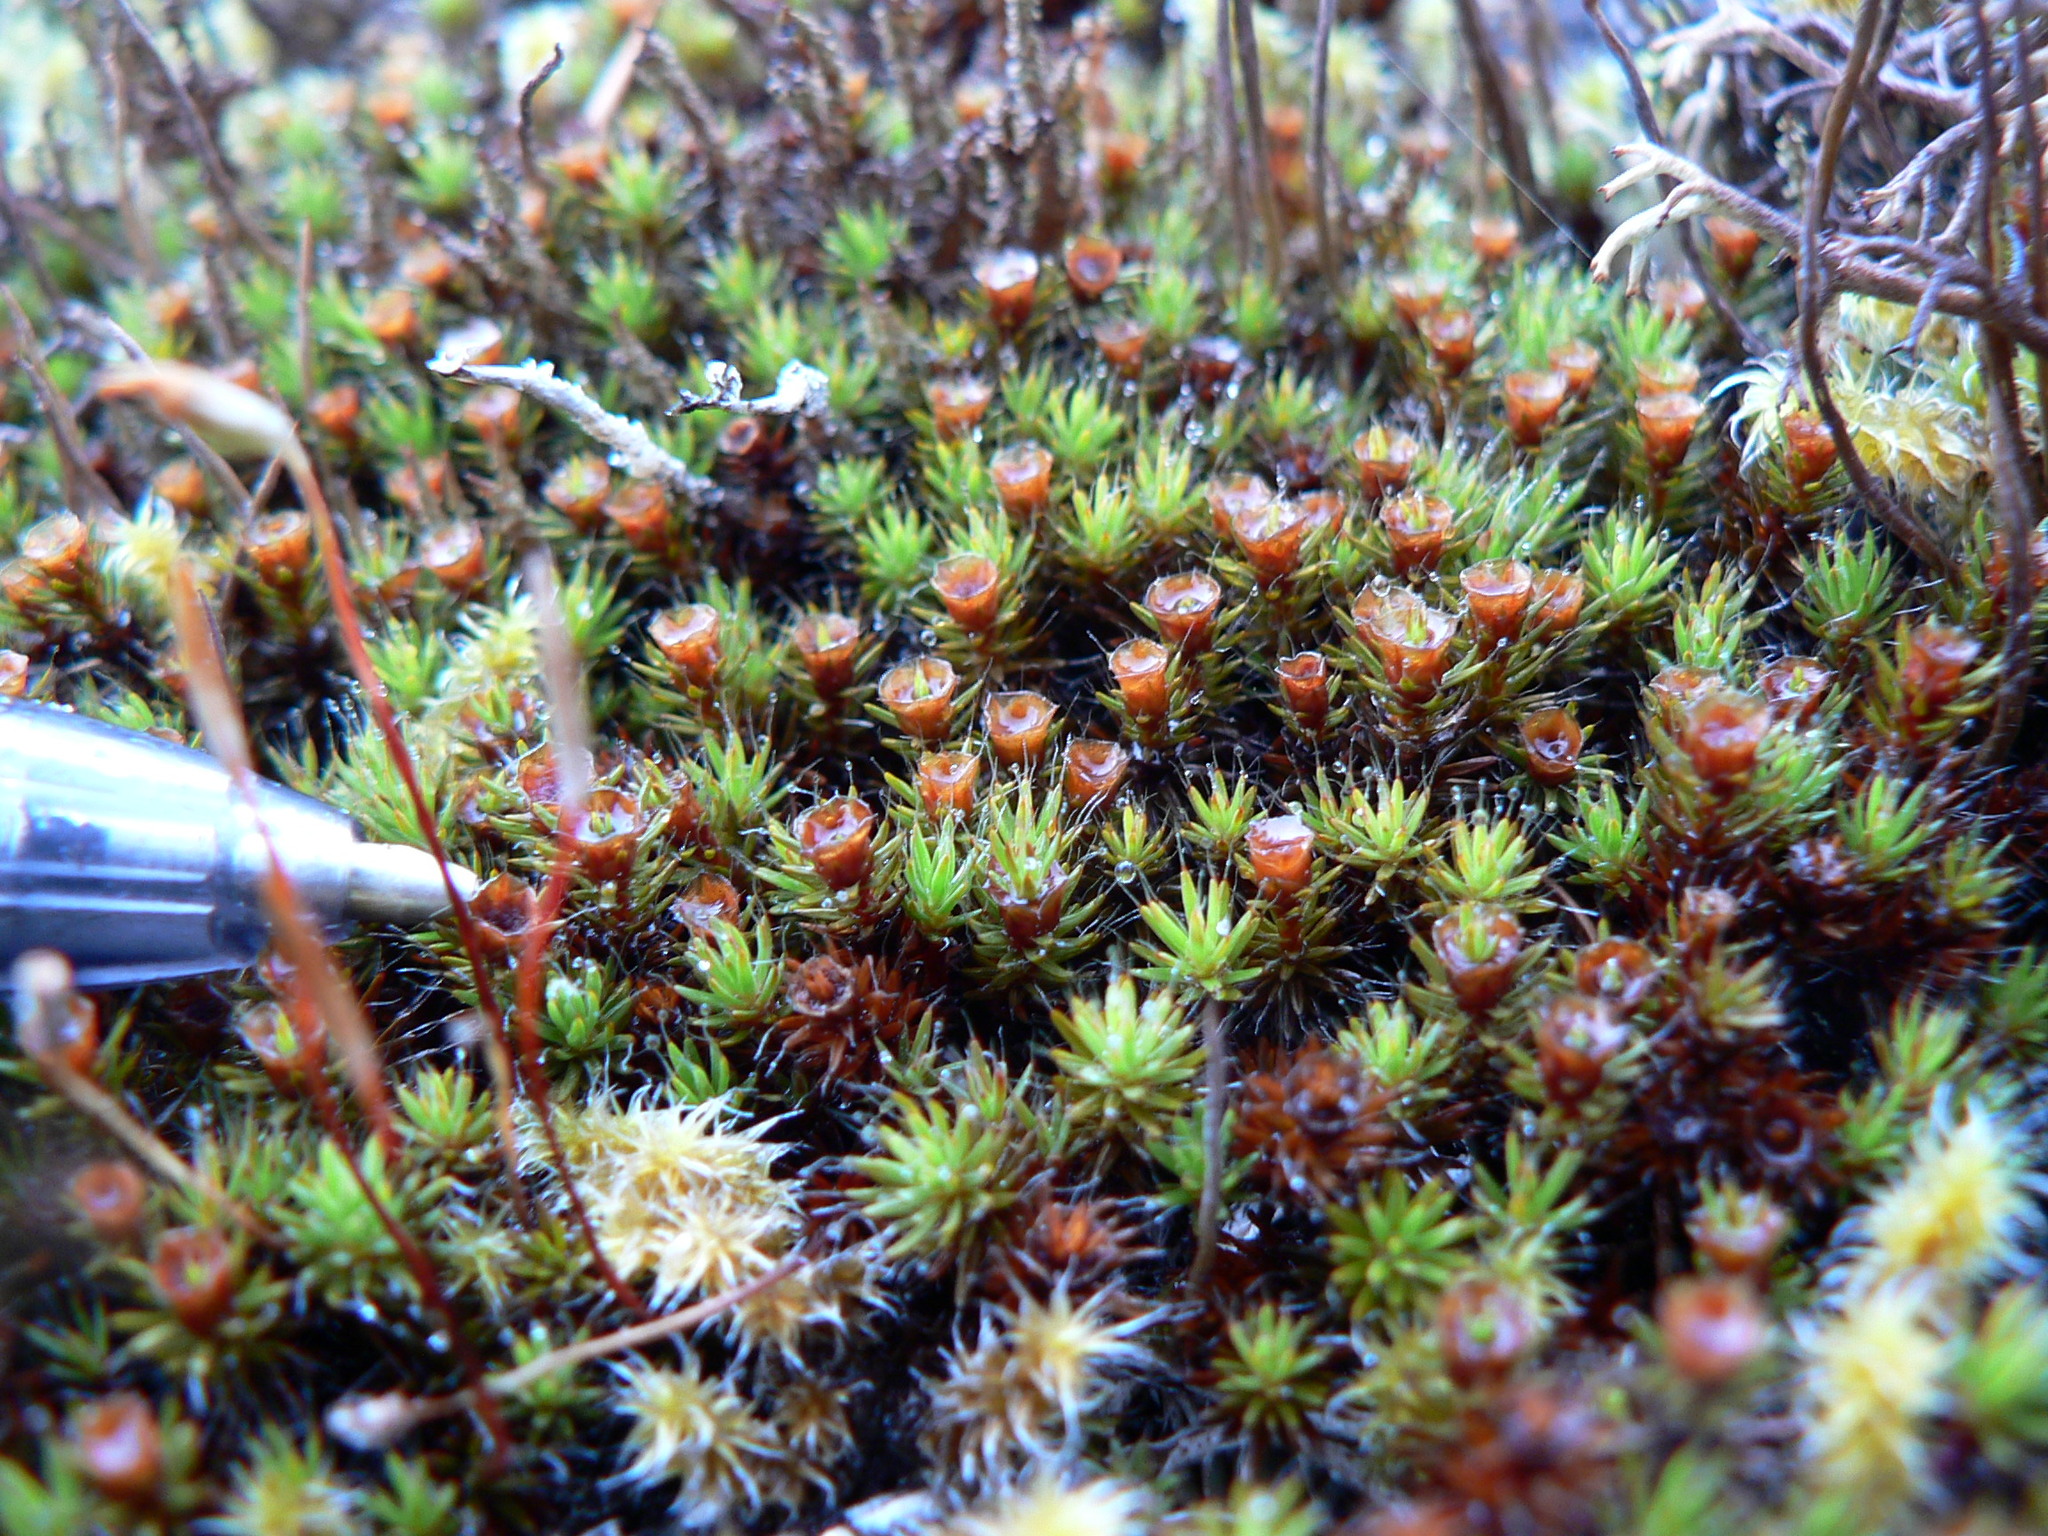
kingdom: Plantae
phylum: Bryophyta
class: Polytrichopsida
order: Polytrichales
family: Polytrichaceae
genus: Polytrichum
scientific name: Polytrichum piliferum
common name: Bristly haircap
